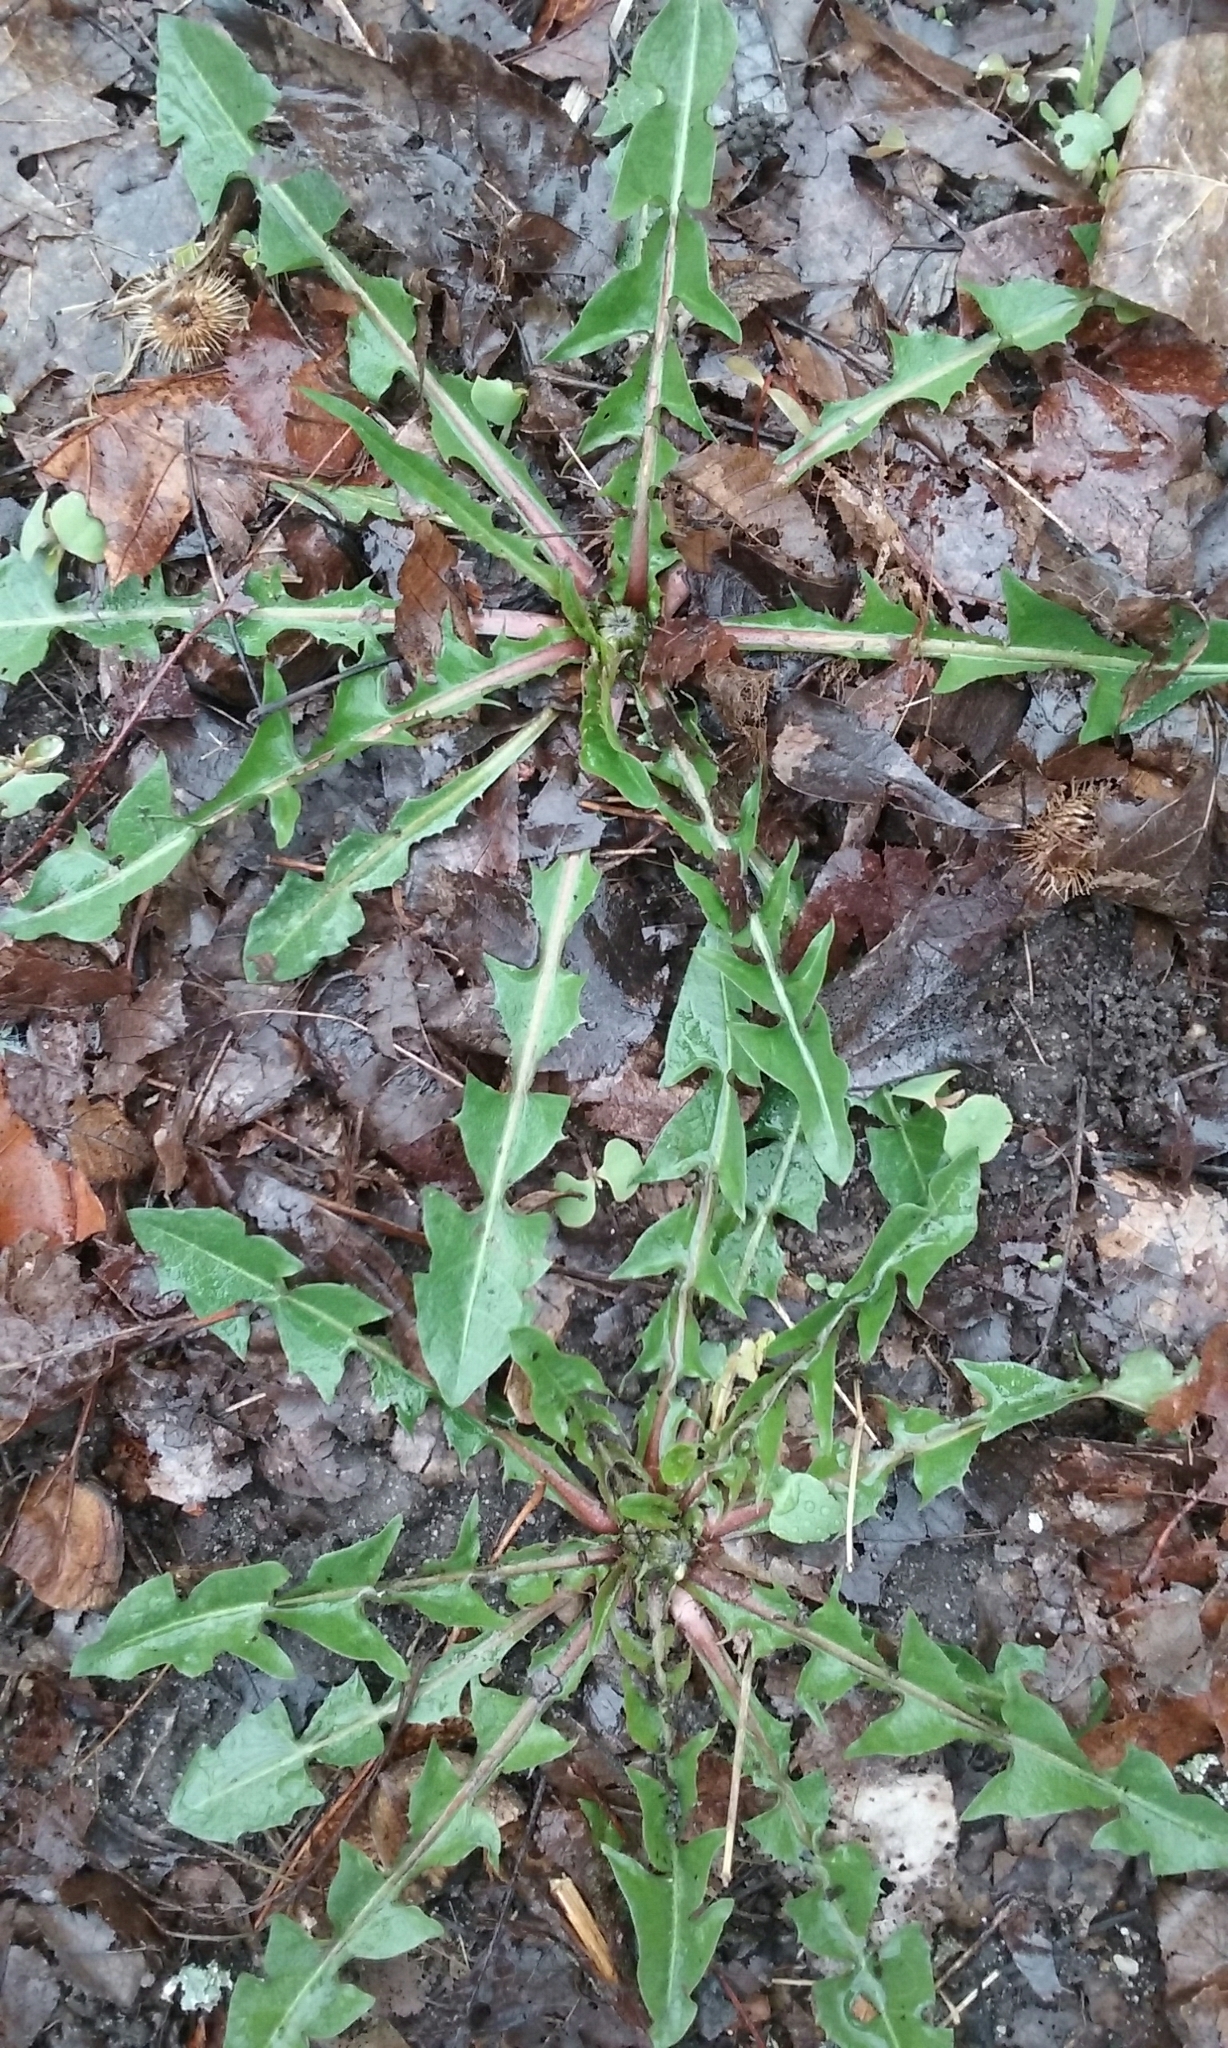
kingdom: Plantae
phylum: Tracheophyta
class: Magnoliopsida
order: Asterales
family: Asteraceae
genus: Taraxacum
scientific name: Taraxacum
